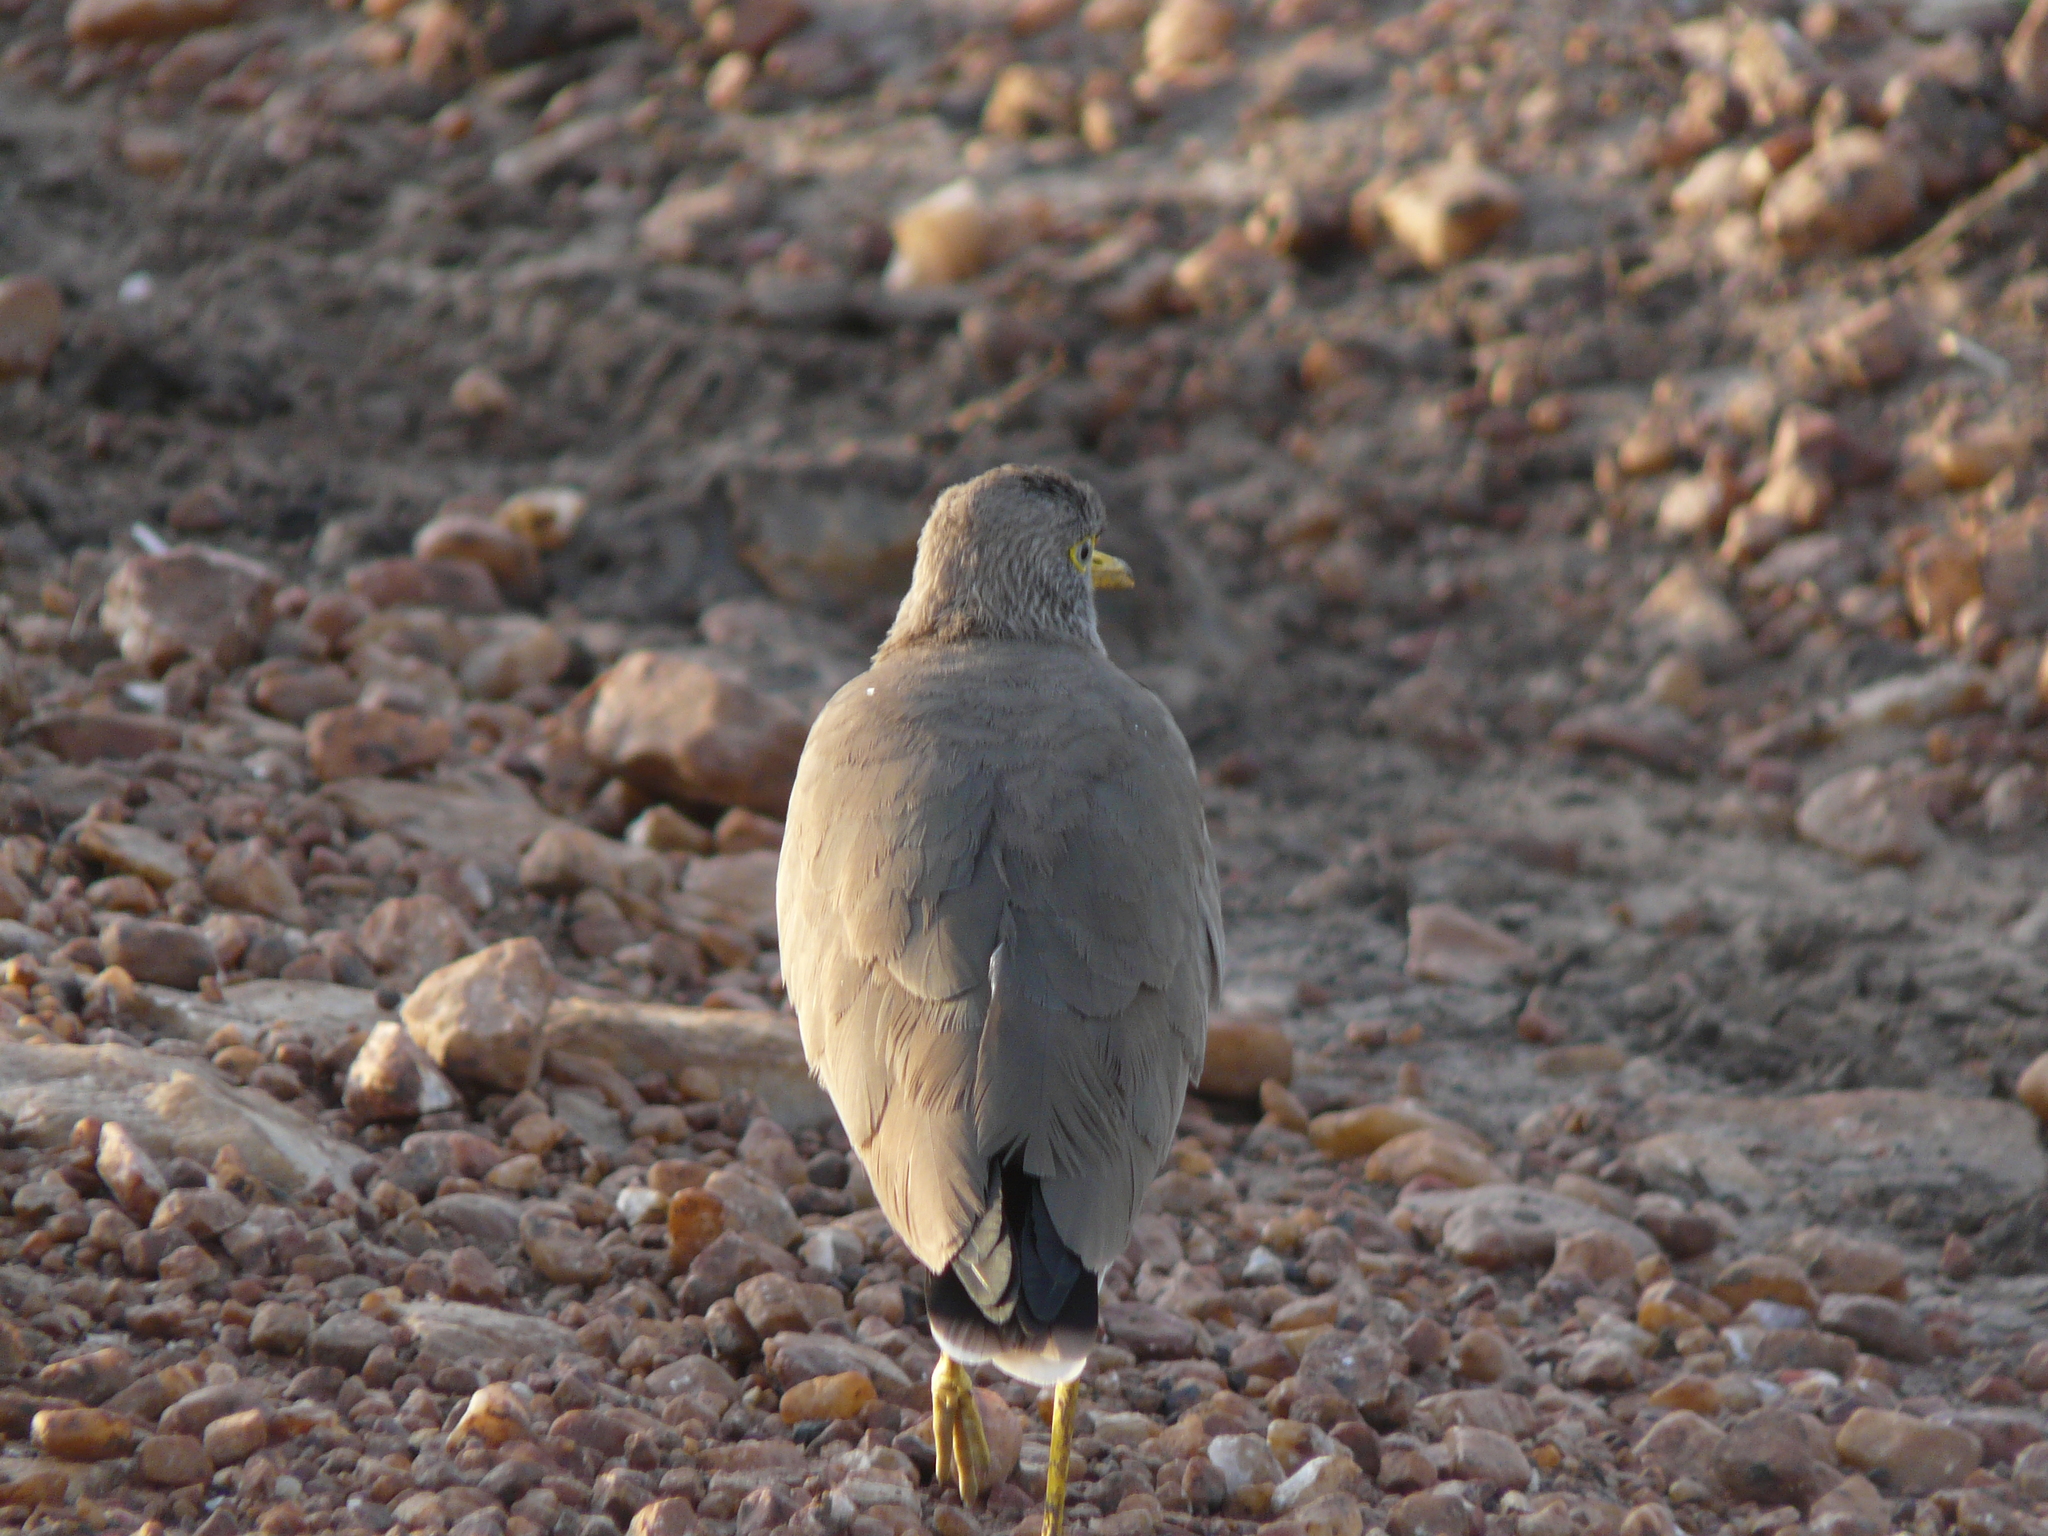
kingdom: Animalia
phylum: Chordata
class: Aves
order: Charadriiformes
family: Charadriidae
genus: Vanellus
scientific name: Vanellus senegallus
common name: African wattled lapwing
